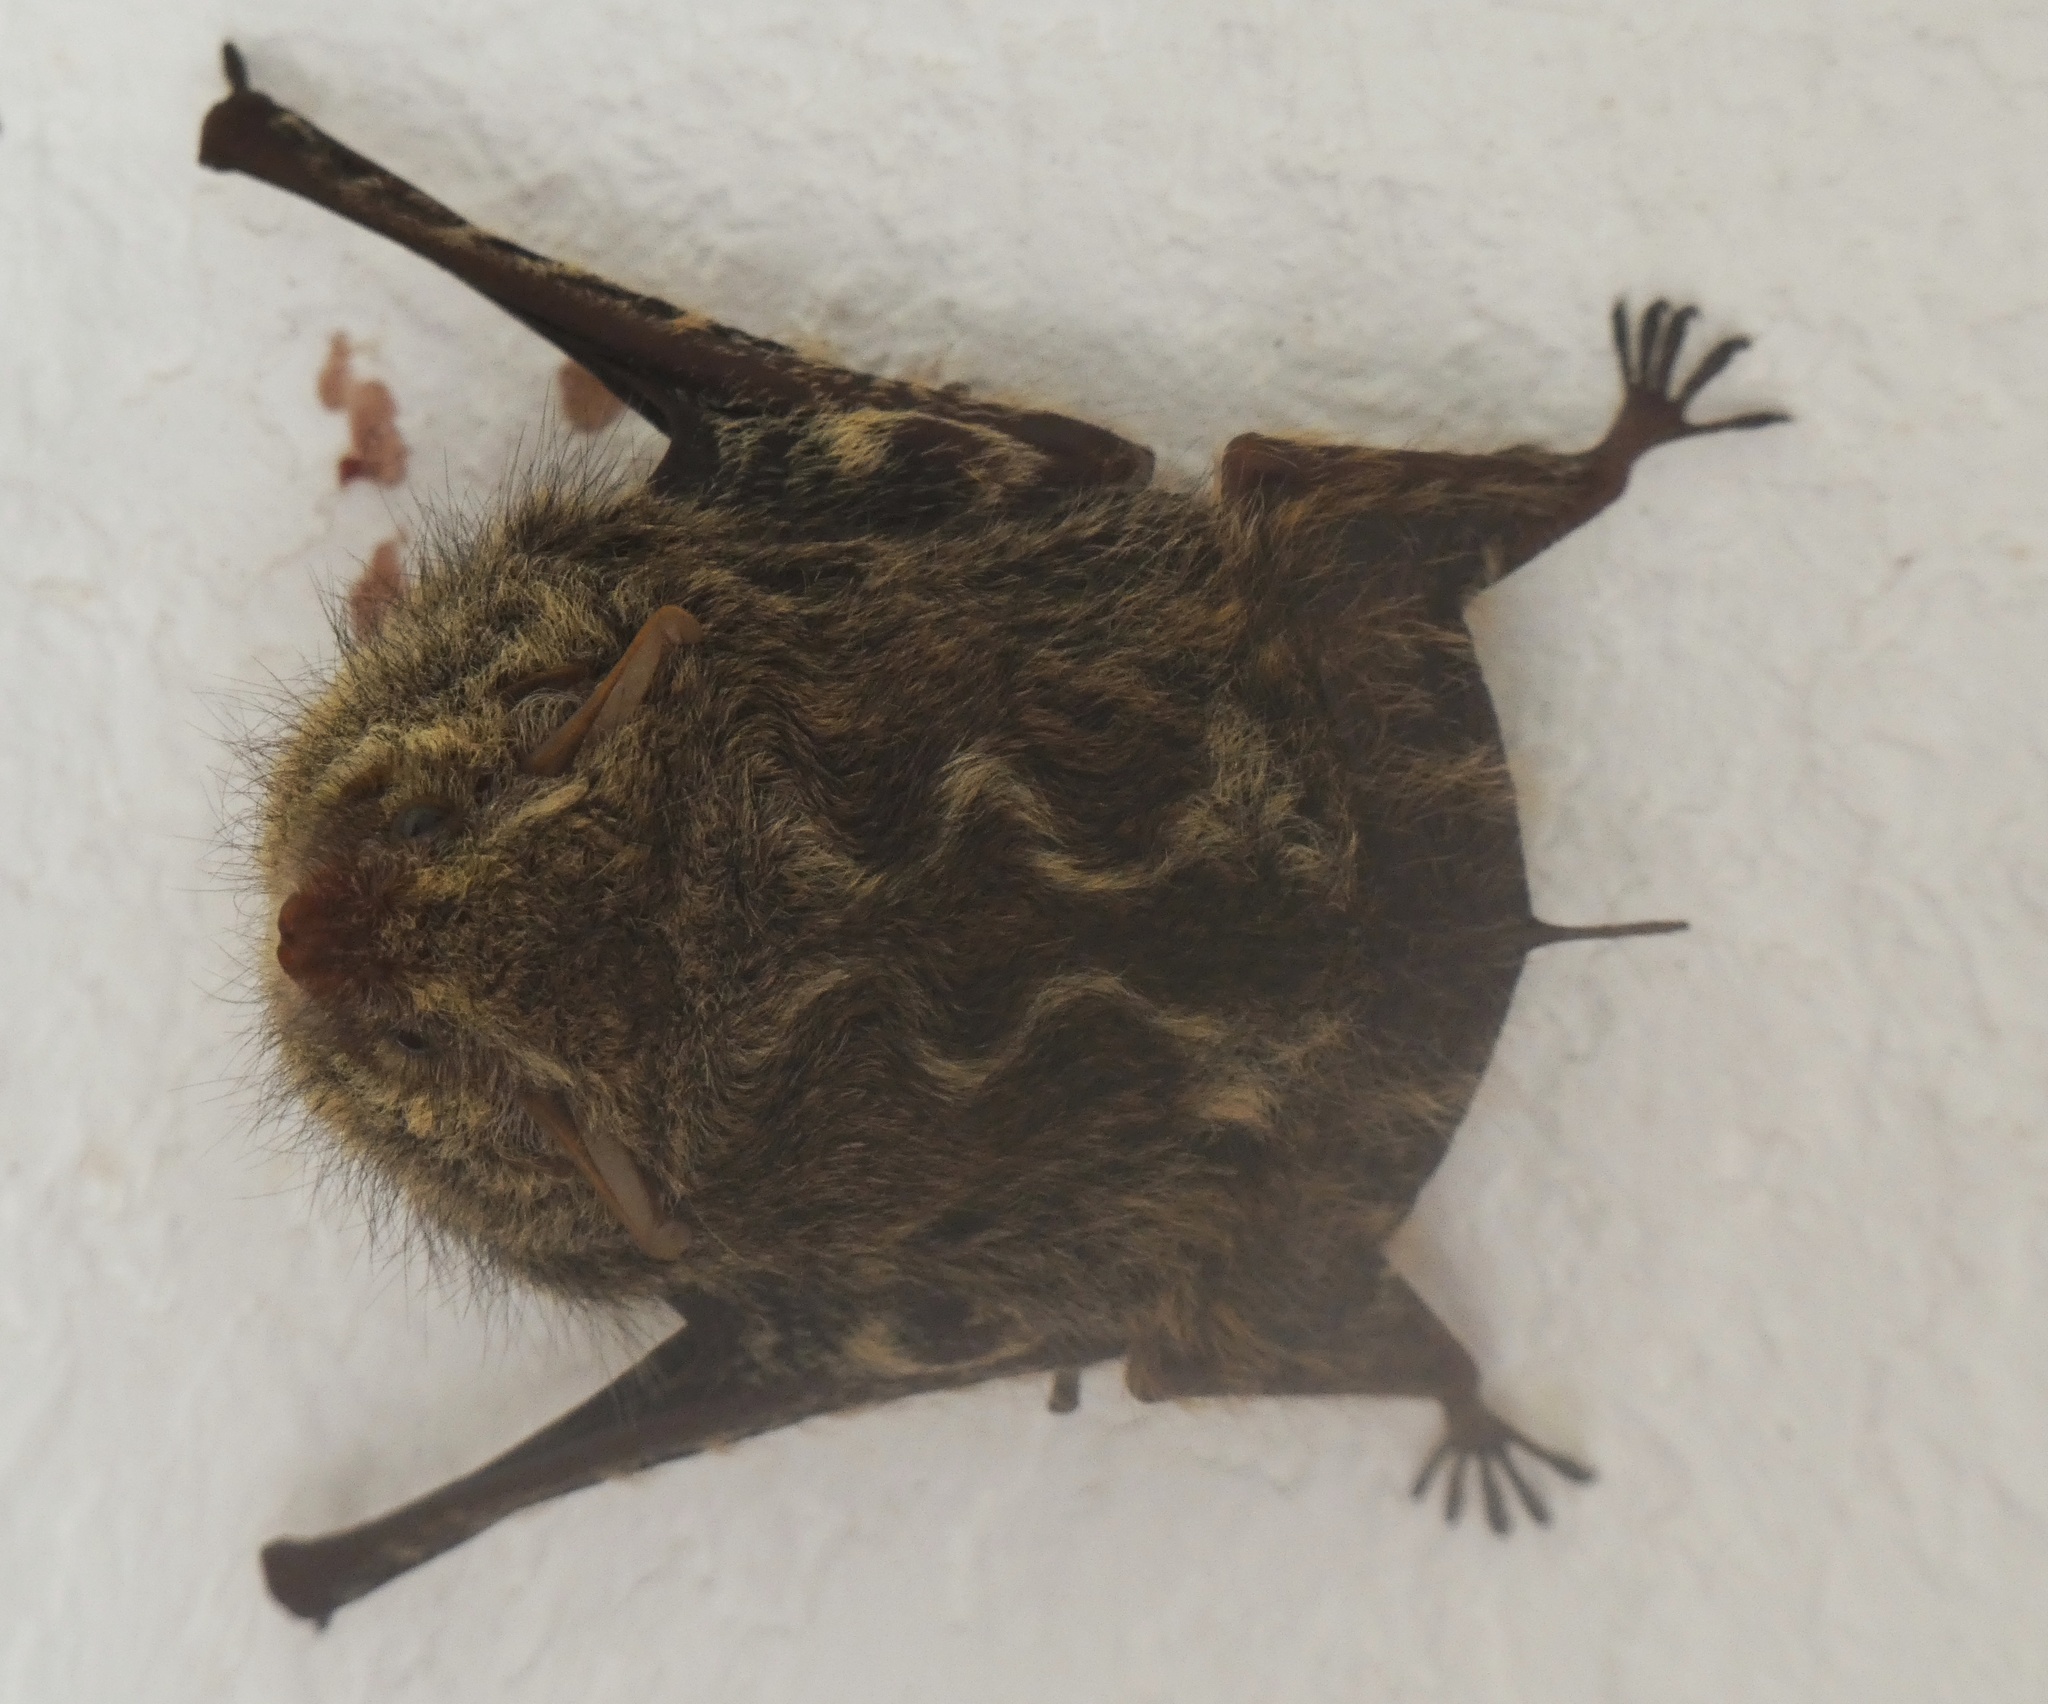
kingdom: Animalia
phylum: Chordata
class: Mammalia
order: Chiroptera
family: Emballonuridae
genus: Rhynchonycteris
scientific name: Rhynchonycteris naso
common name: Proboscis bat
